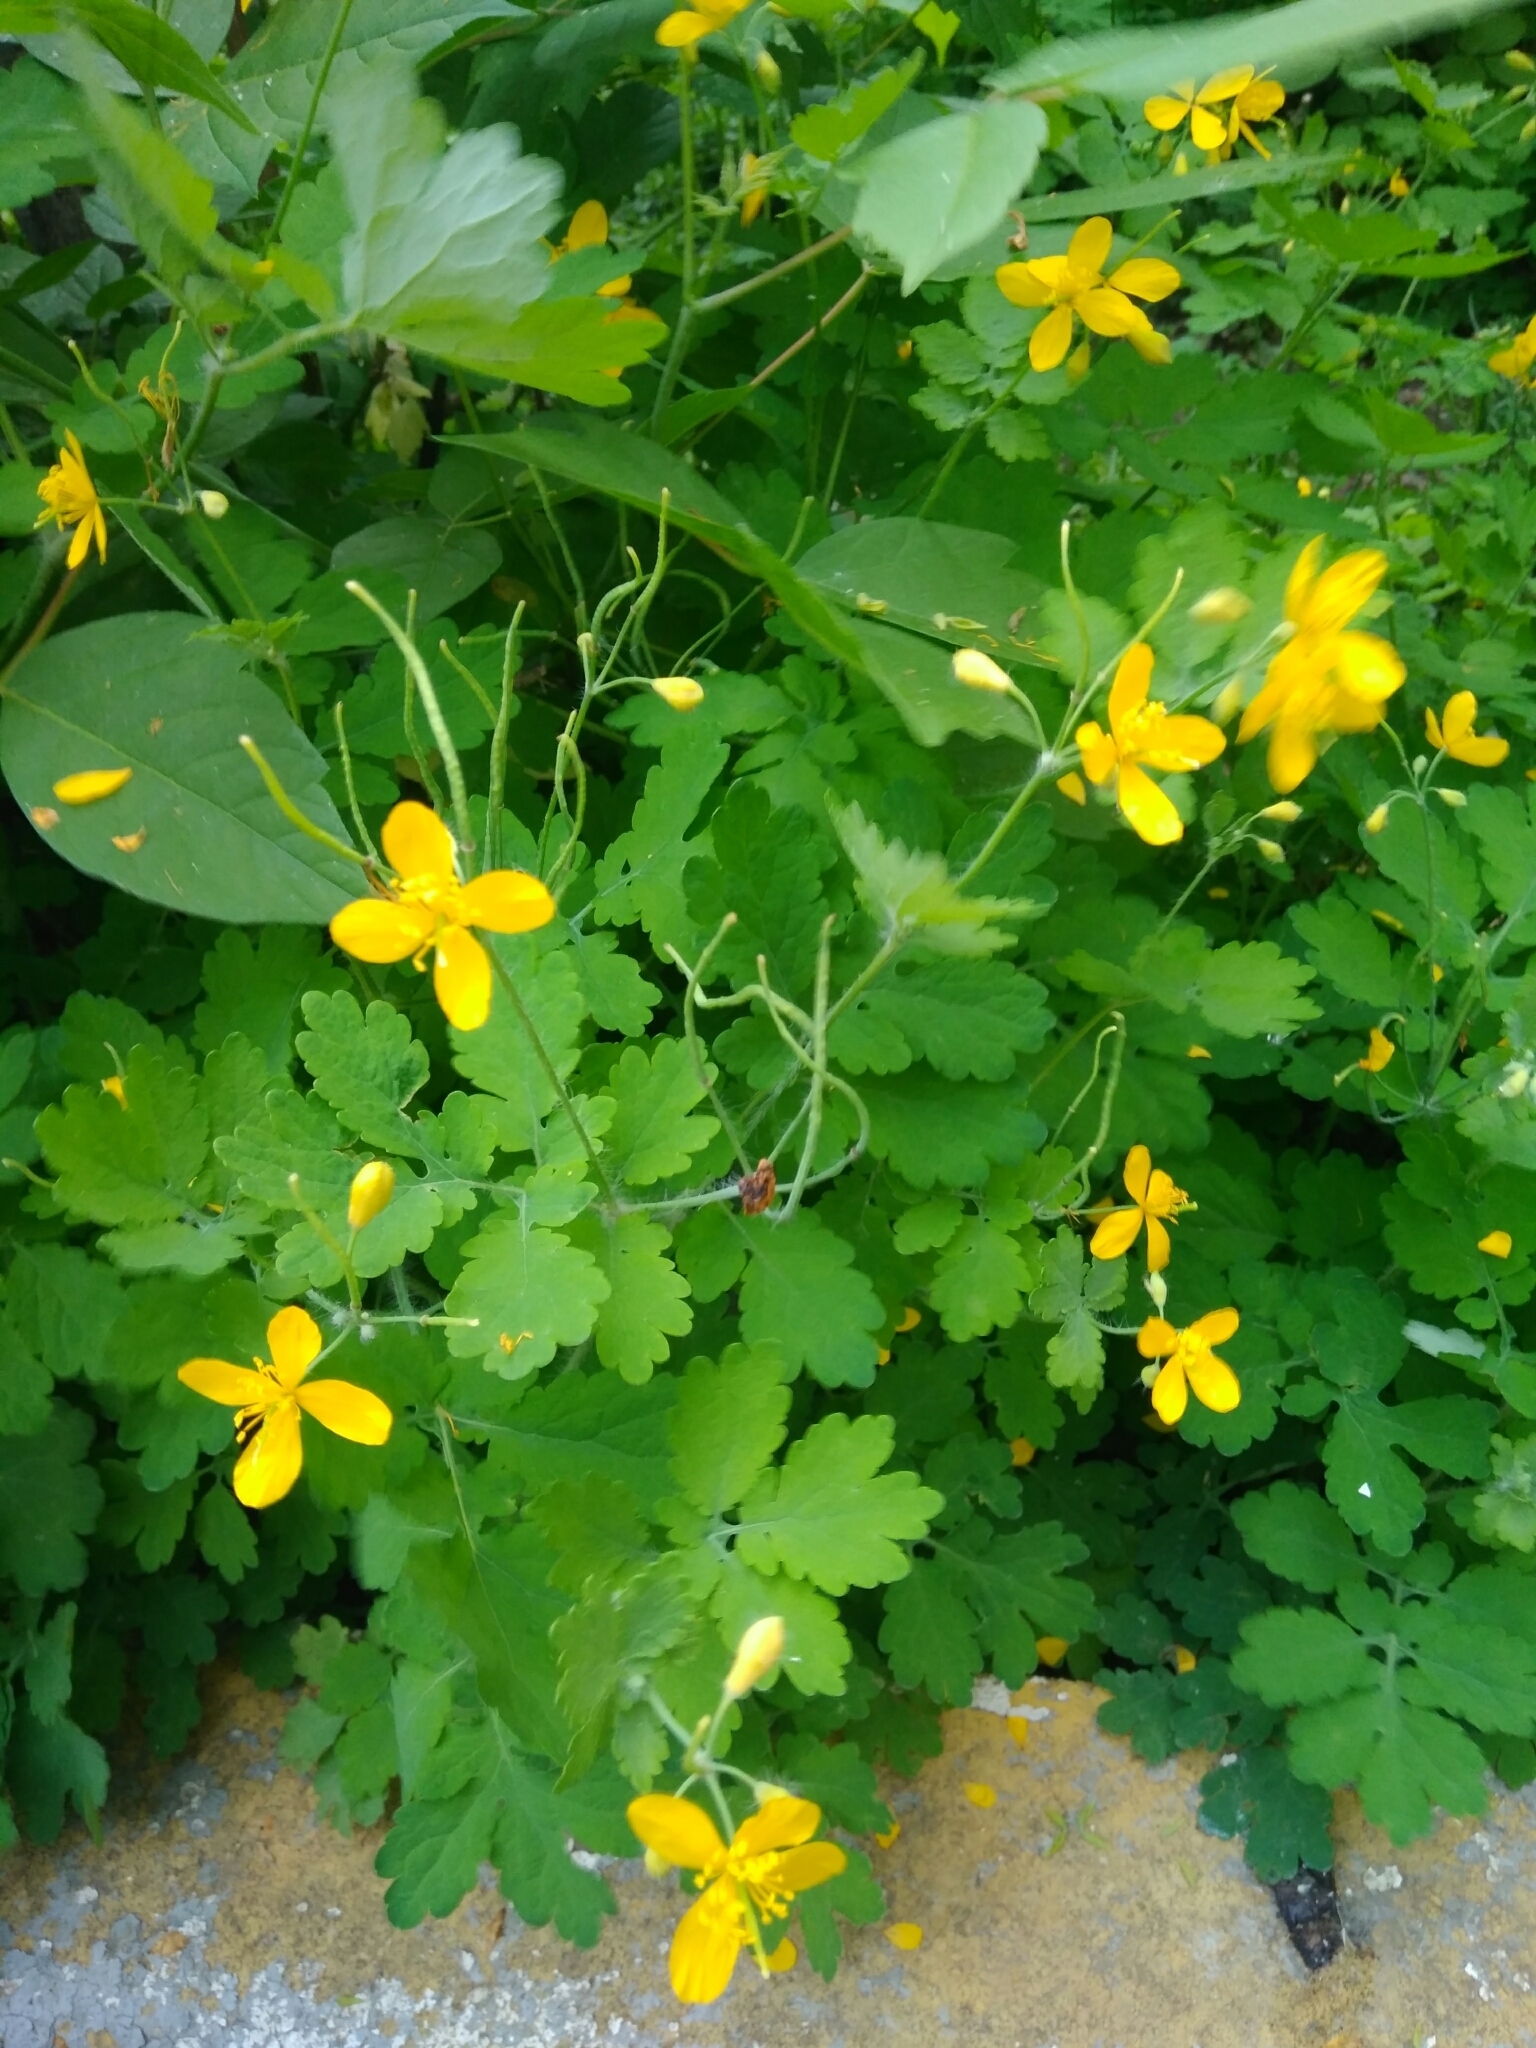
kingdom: Plantae
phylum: Tracheophyta
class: Magnoliopsida
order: Ranunculales
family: Papaveraceae
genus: Chelidonium
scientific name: Chelidonium majus
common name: Greater celandine
